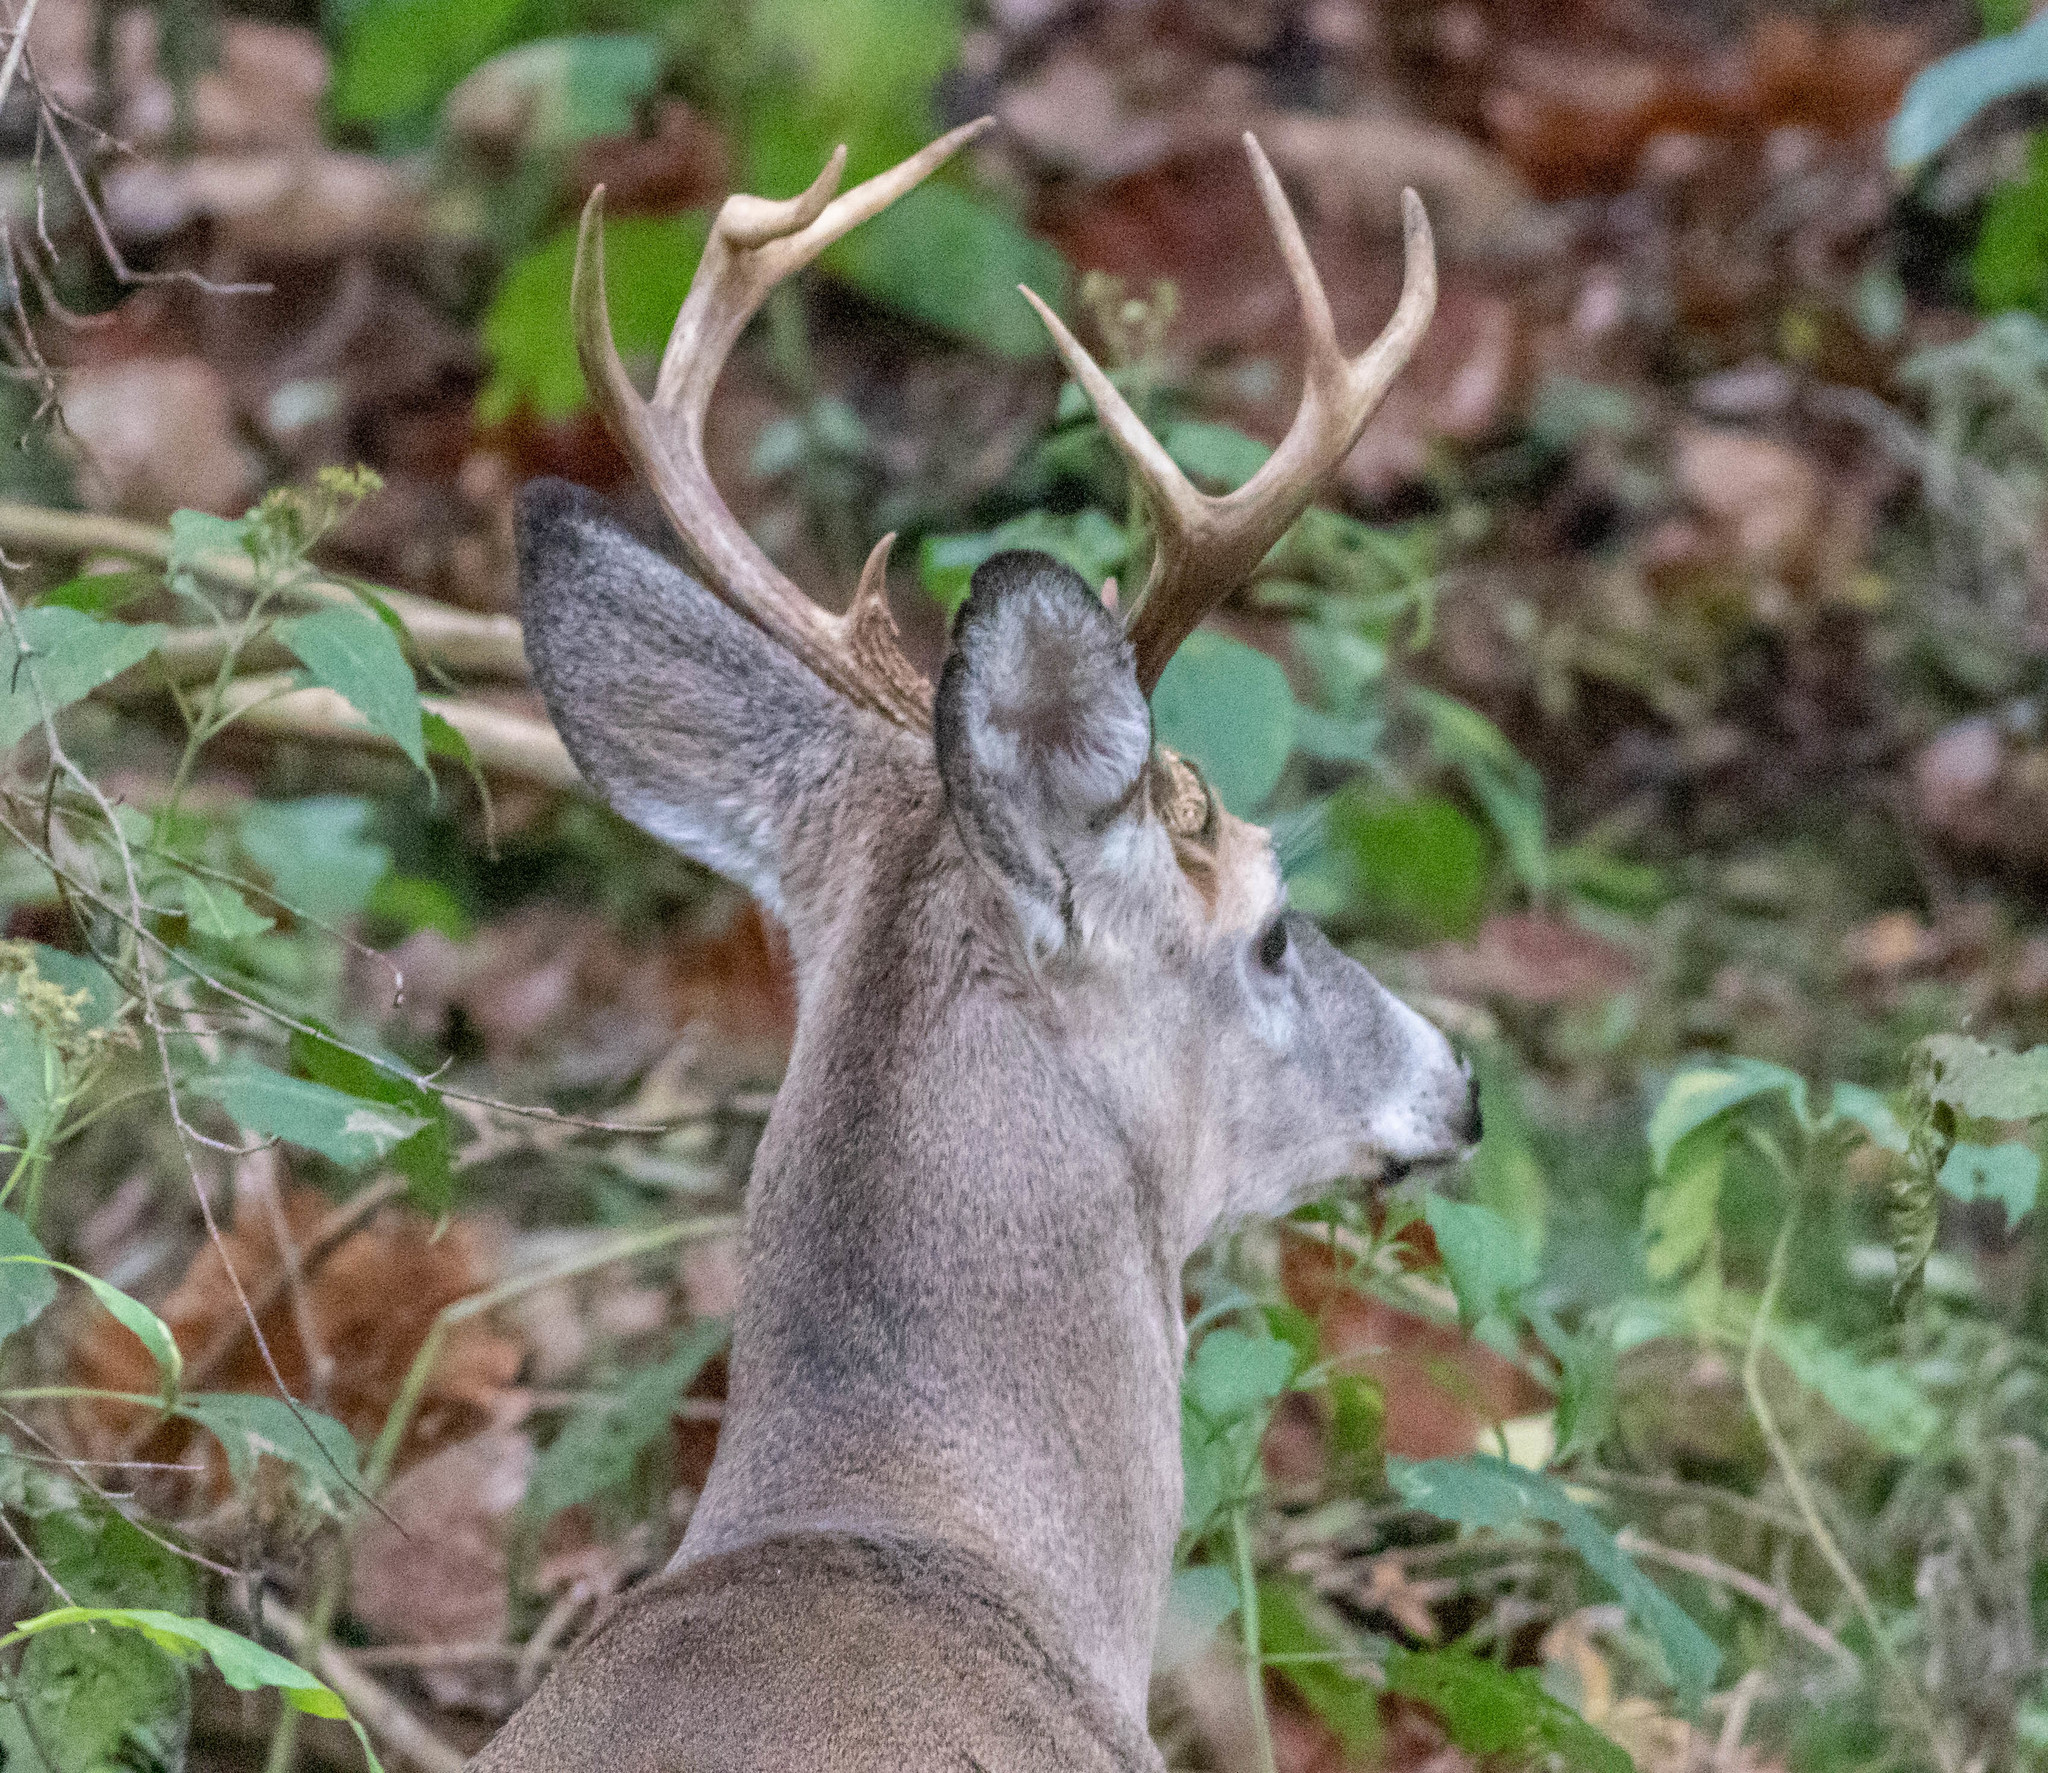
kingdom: Animalia
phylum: Chordata
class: Mammalia
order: Artiodactyla
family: Cervidae
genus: Odocoileus
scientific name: Odocoileus virginianus
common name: White-tailed deer
